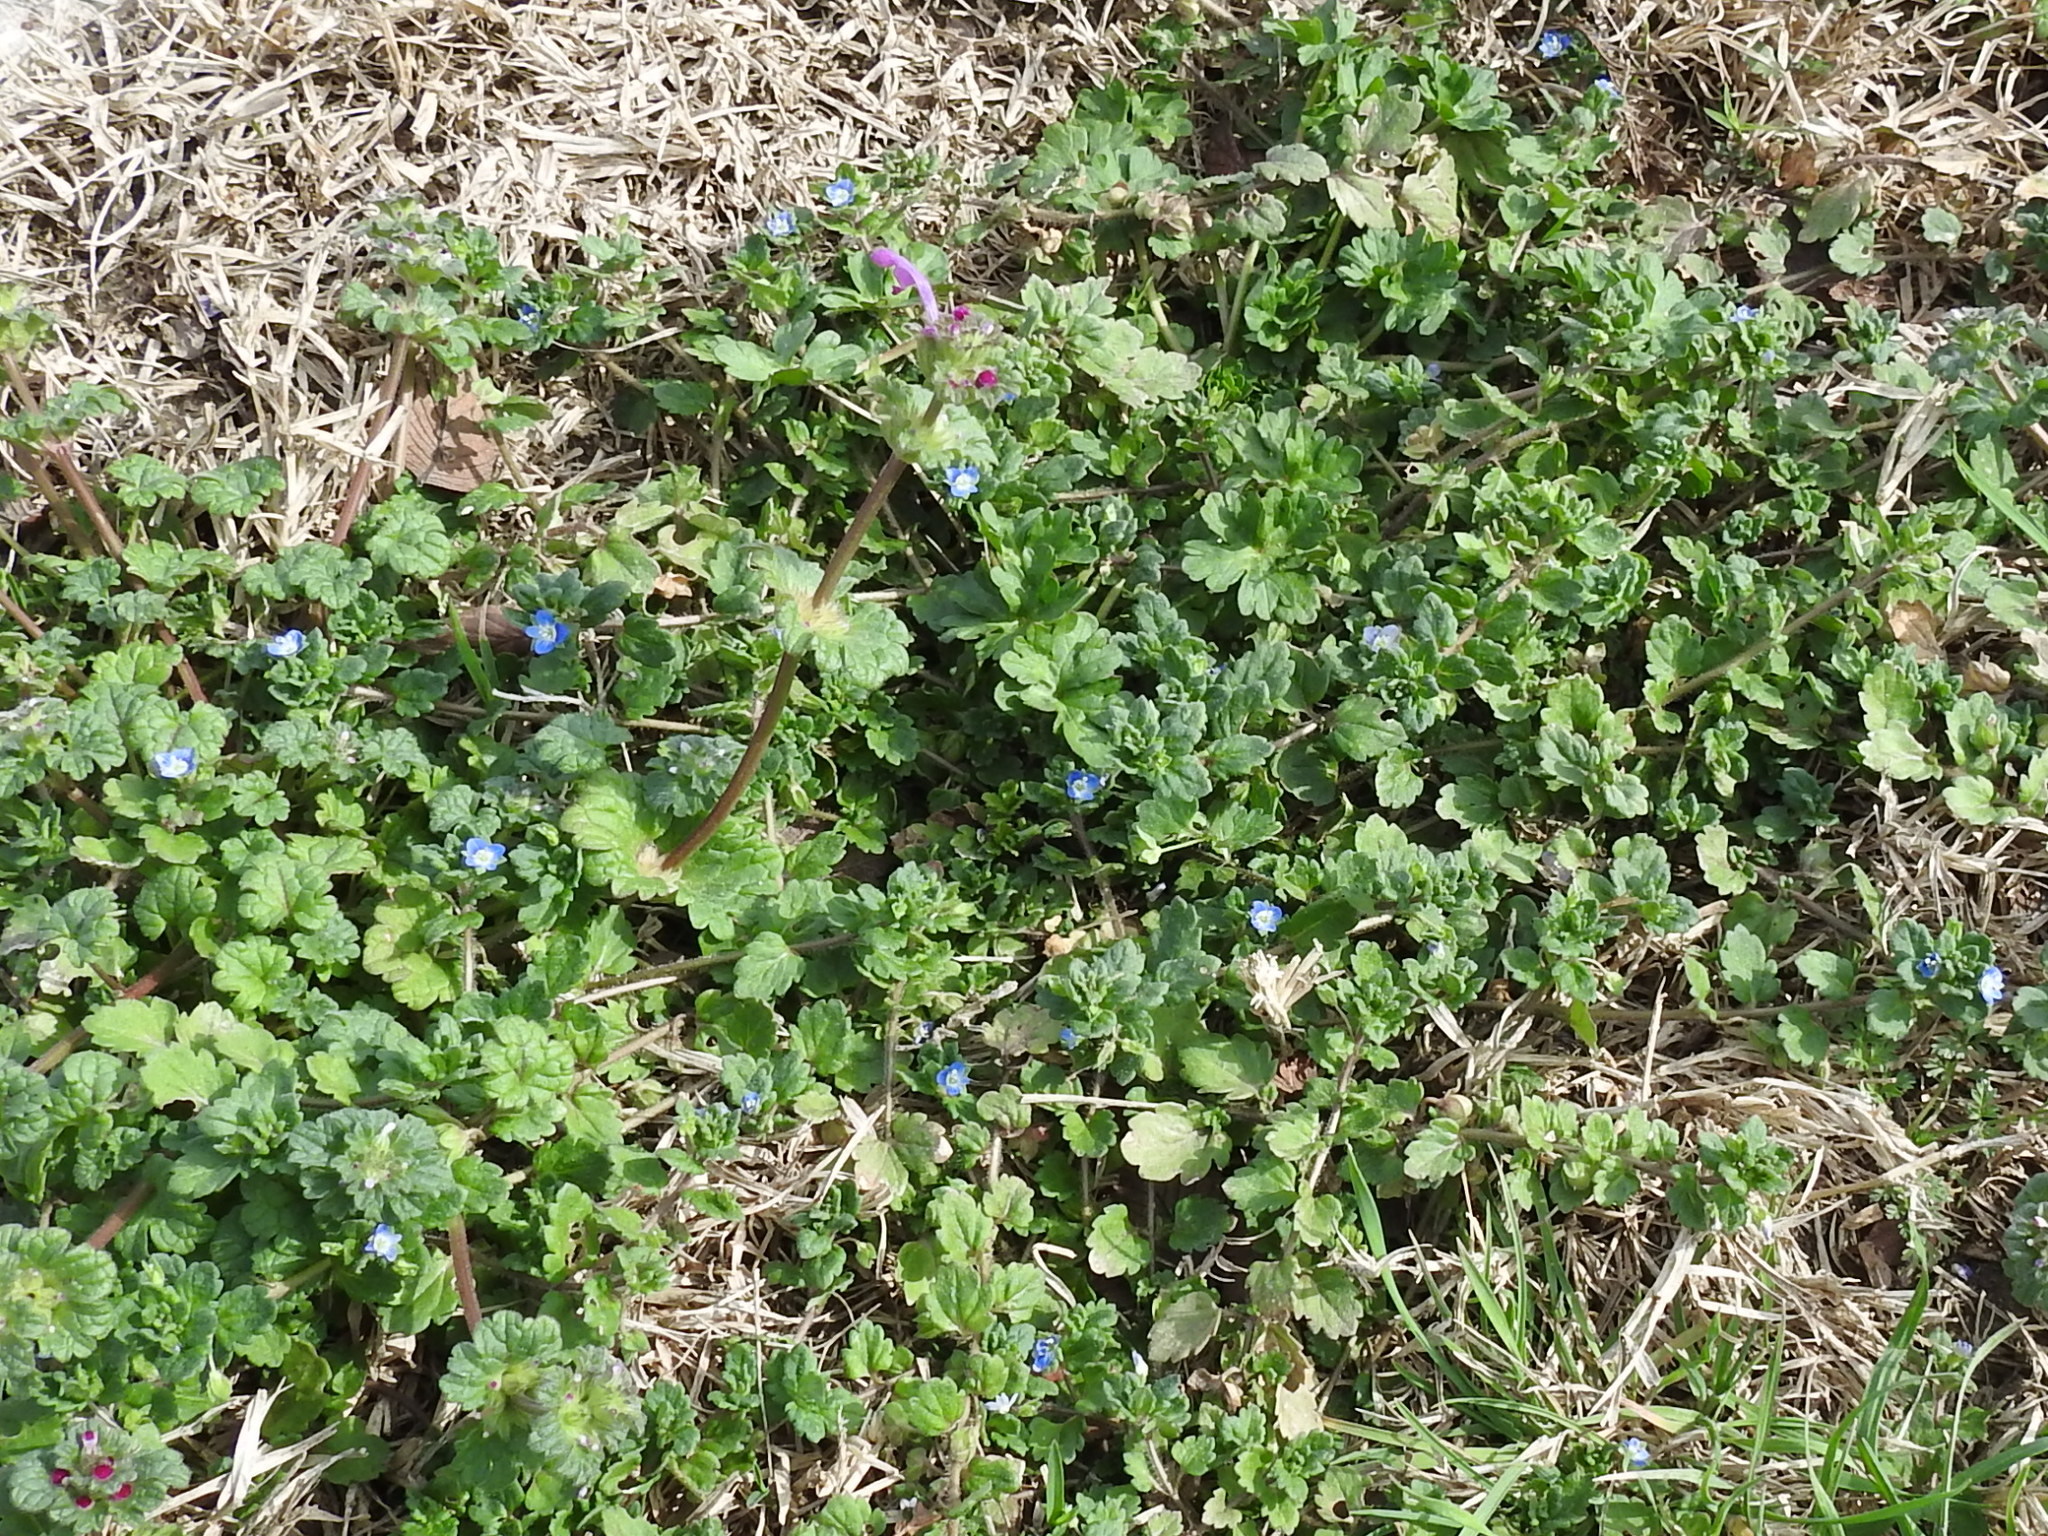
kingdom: Plantae
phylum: Tracheophyta
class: Magnoliopsida
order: Lamiales
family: Plantaginaceae
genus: Veronica
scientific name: Veronica polita
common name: Grey field-speedwell
